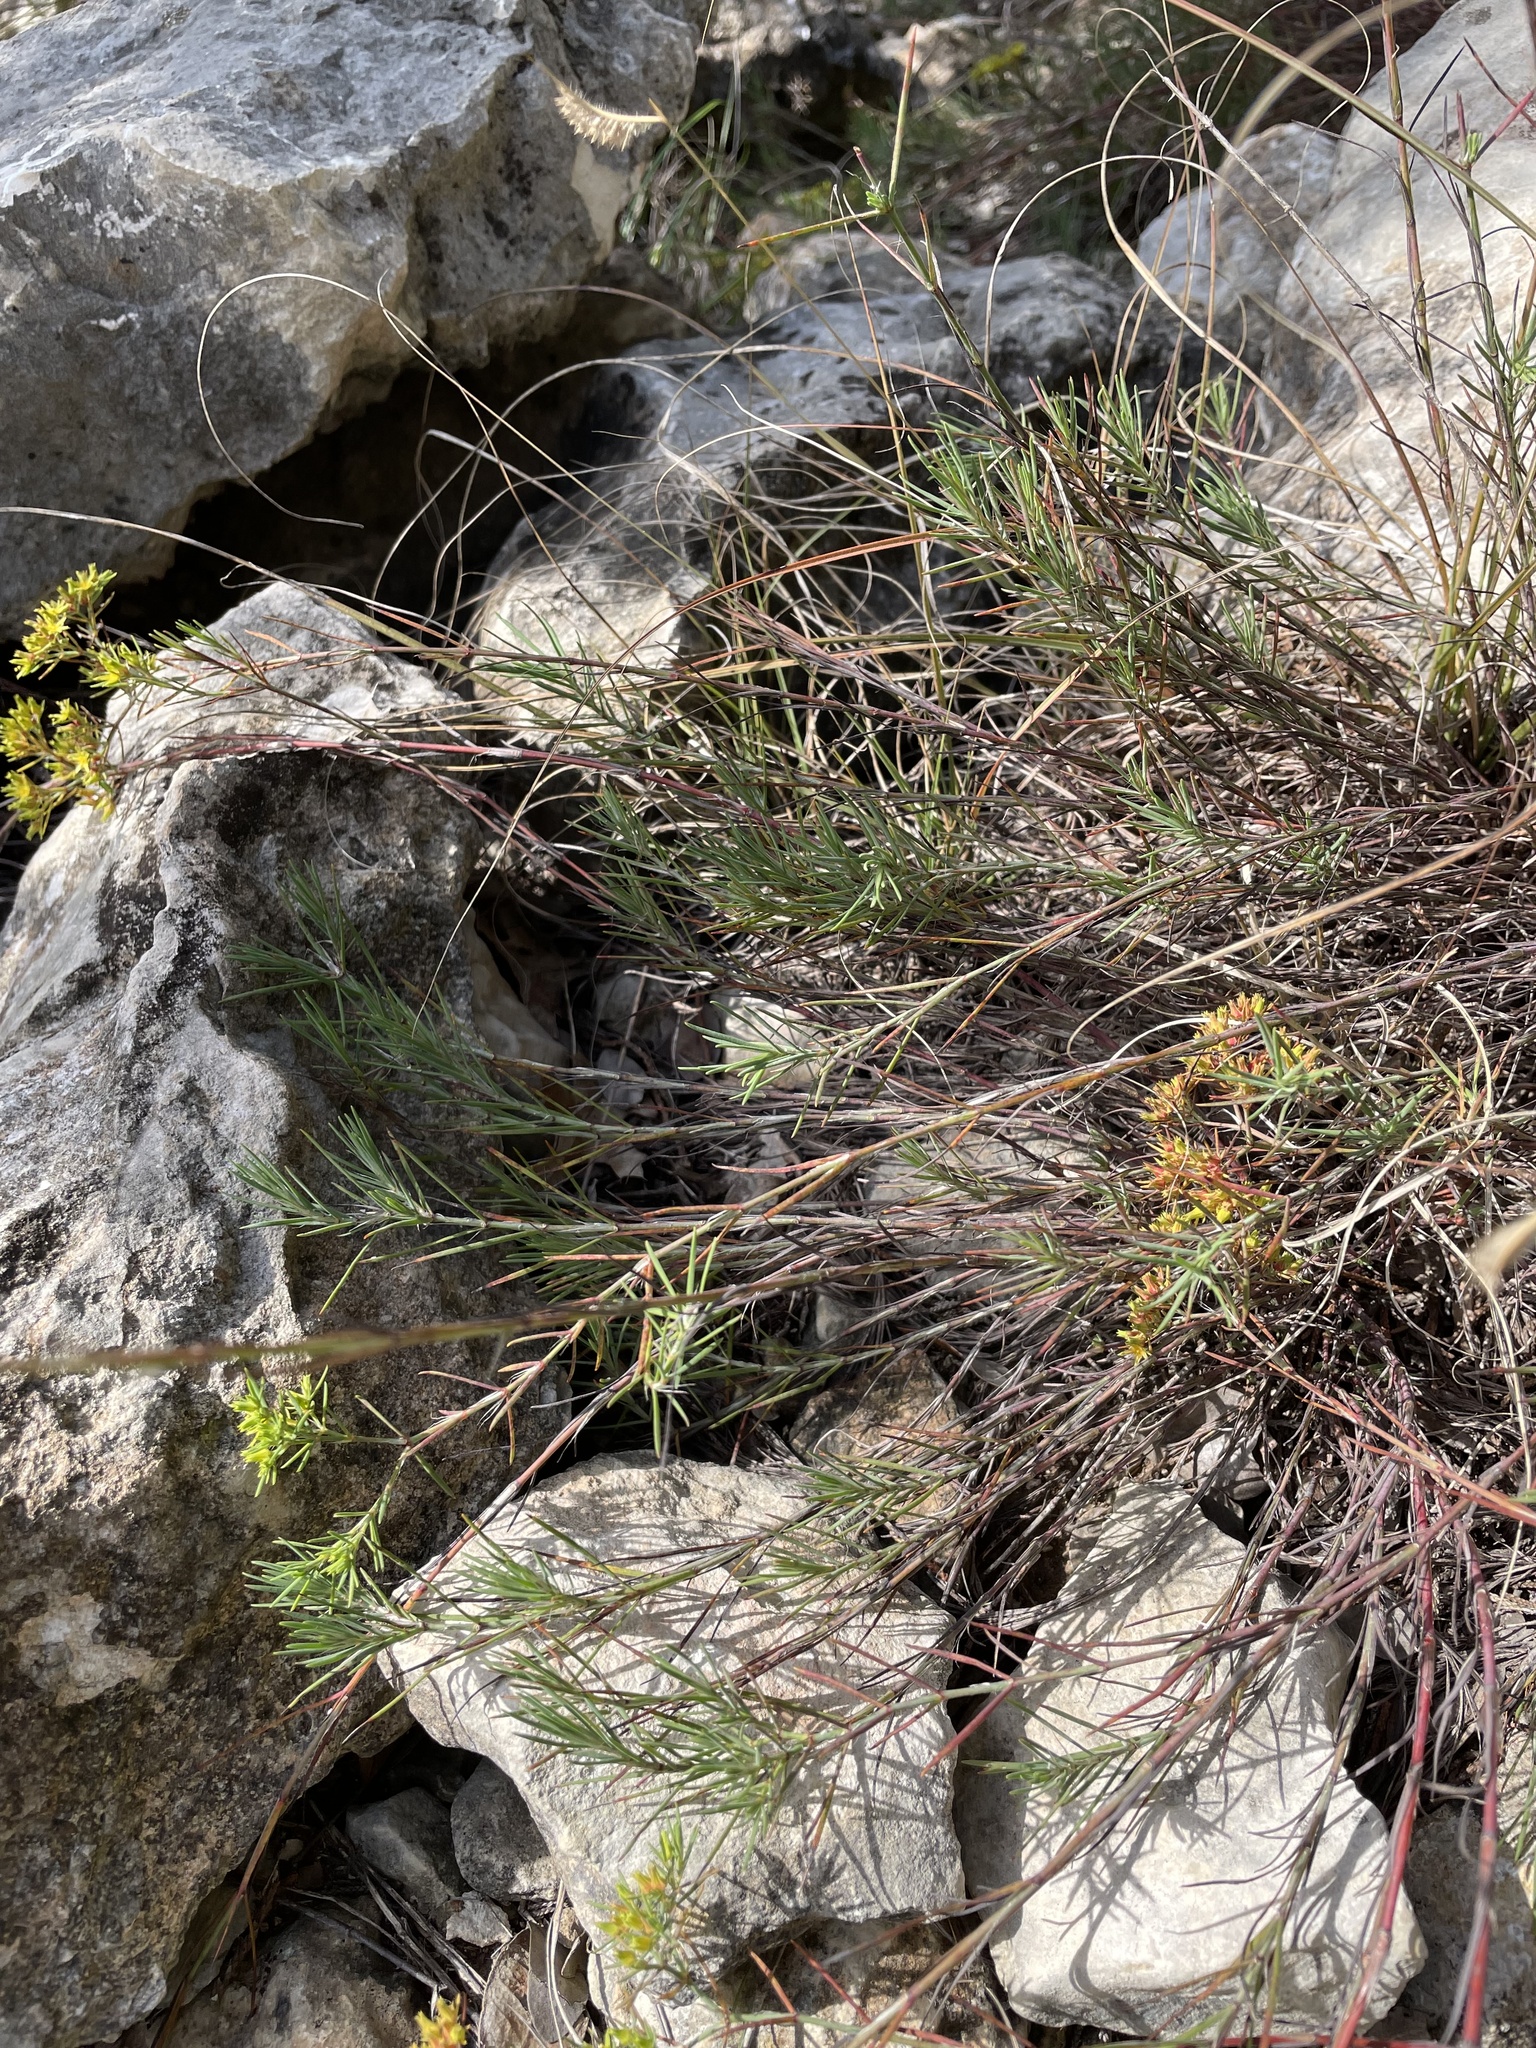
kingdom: Plantae
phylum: Tracheophyta
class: Magnoliopsida
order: Caryophyllales
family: Caryophyllaceae
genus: Paronychia
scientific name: Paronychia virginica
